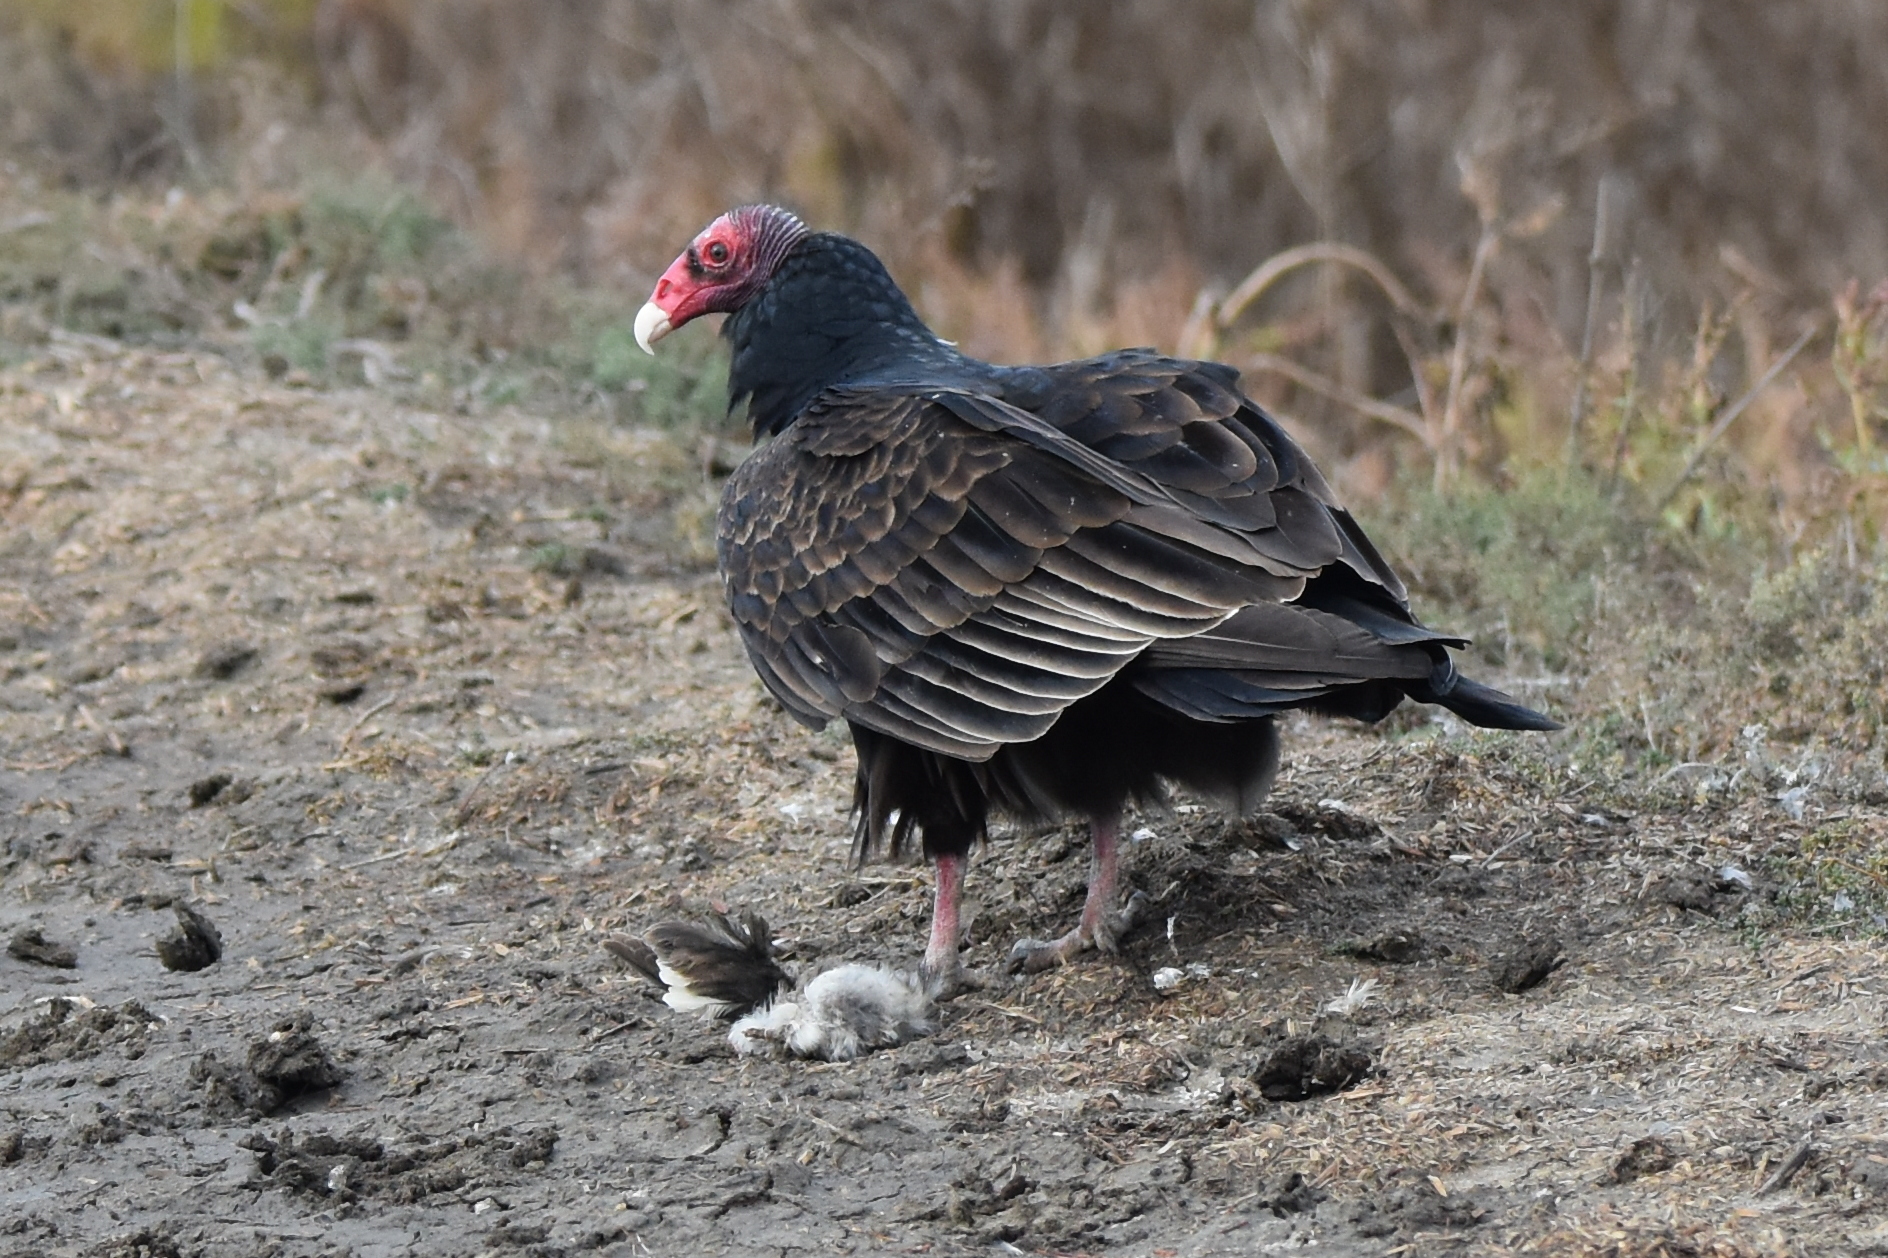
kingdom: Animalia
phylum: Chordata
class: Aves
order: Accipitriformes
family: Cathartidae
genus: Cathartes
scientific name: Cathartes aura
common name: Turkey vulture
